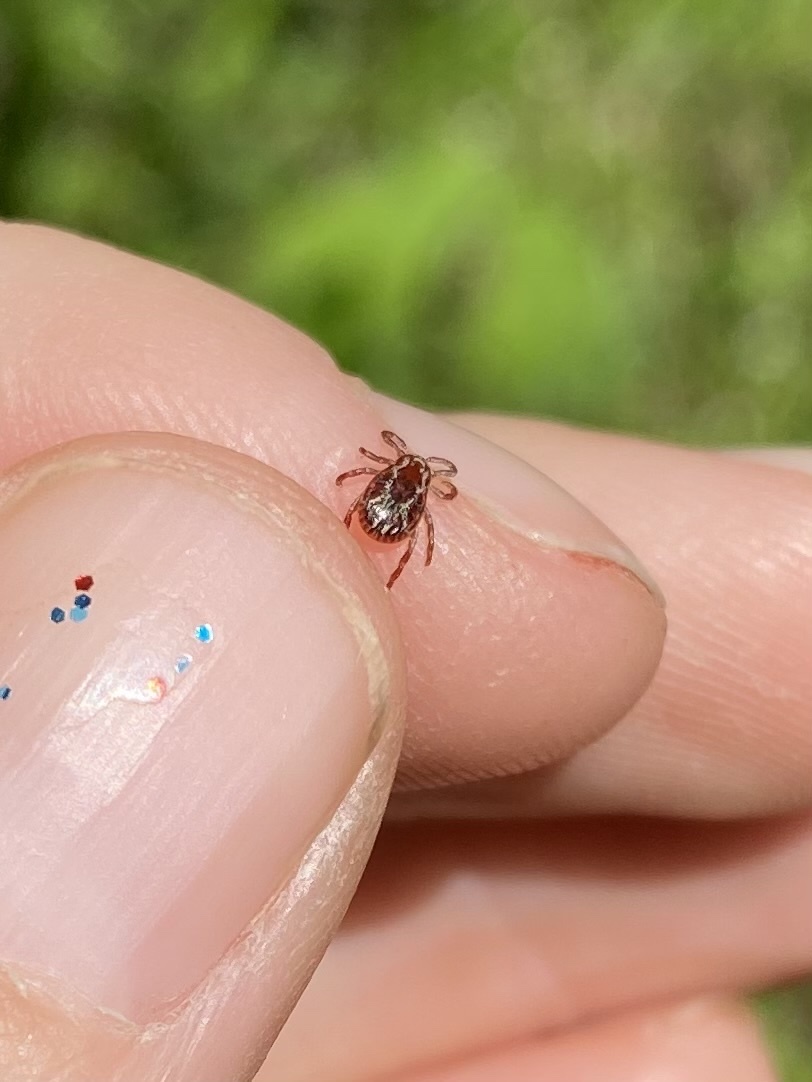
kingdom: Animalia
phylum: Arthropoda
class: Arachnida
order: Ixodida
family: Ixodidae
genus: Dermacentor
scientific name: Dermacentor variabilis
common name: American dog tick
